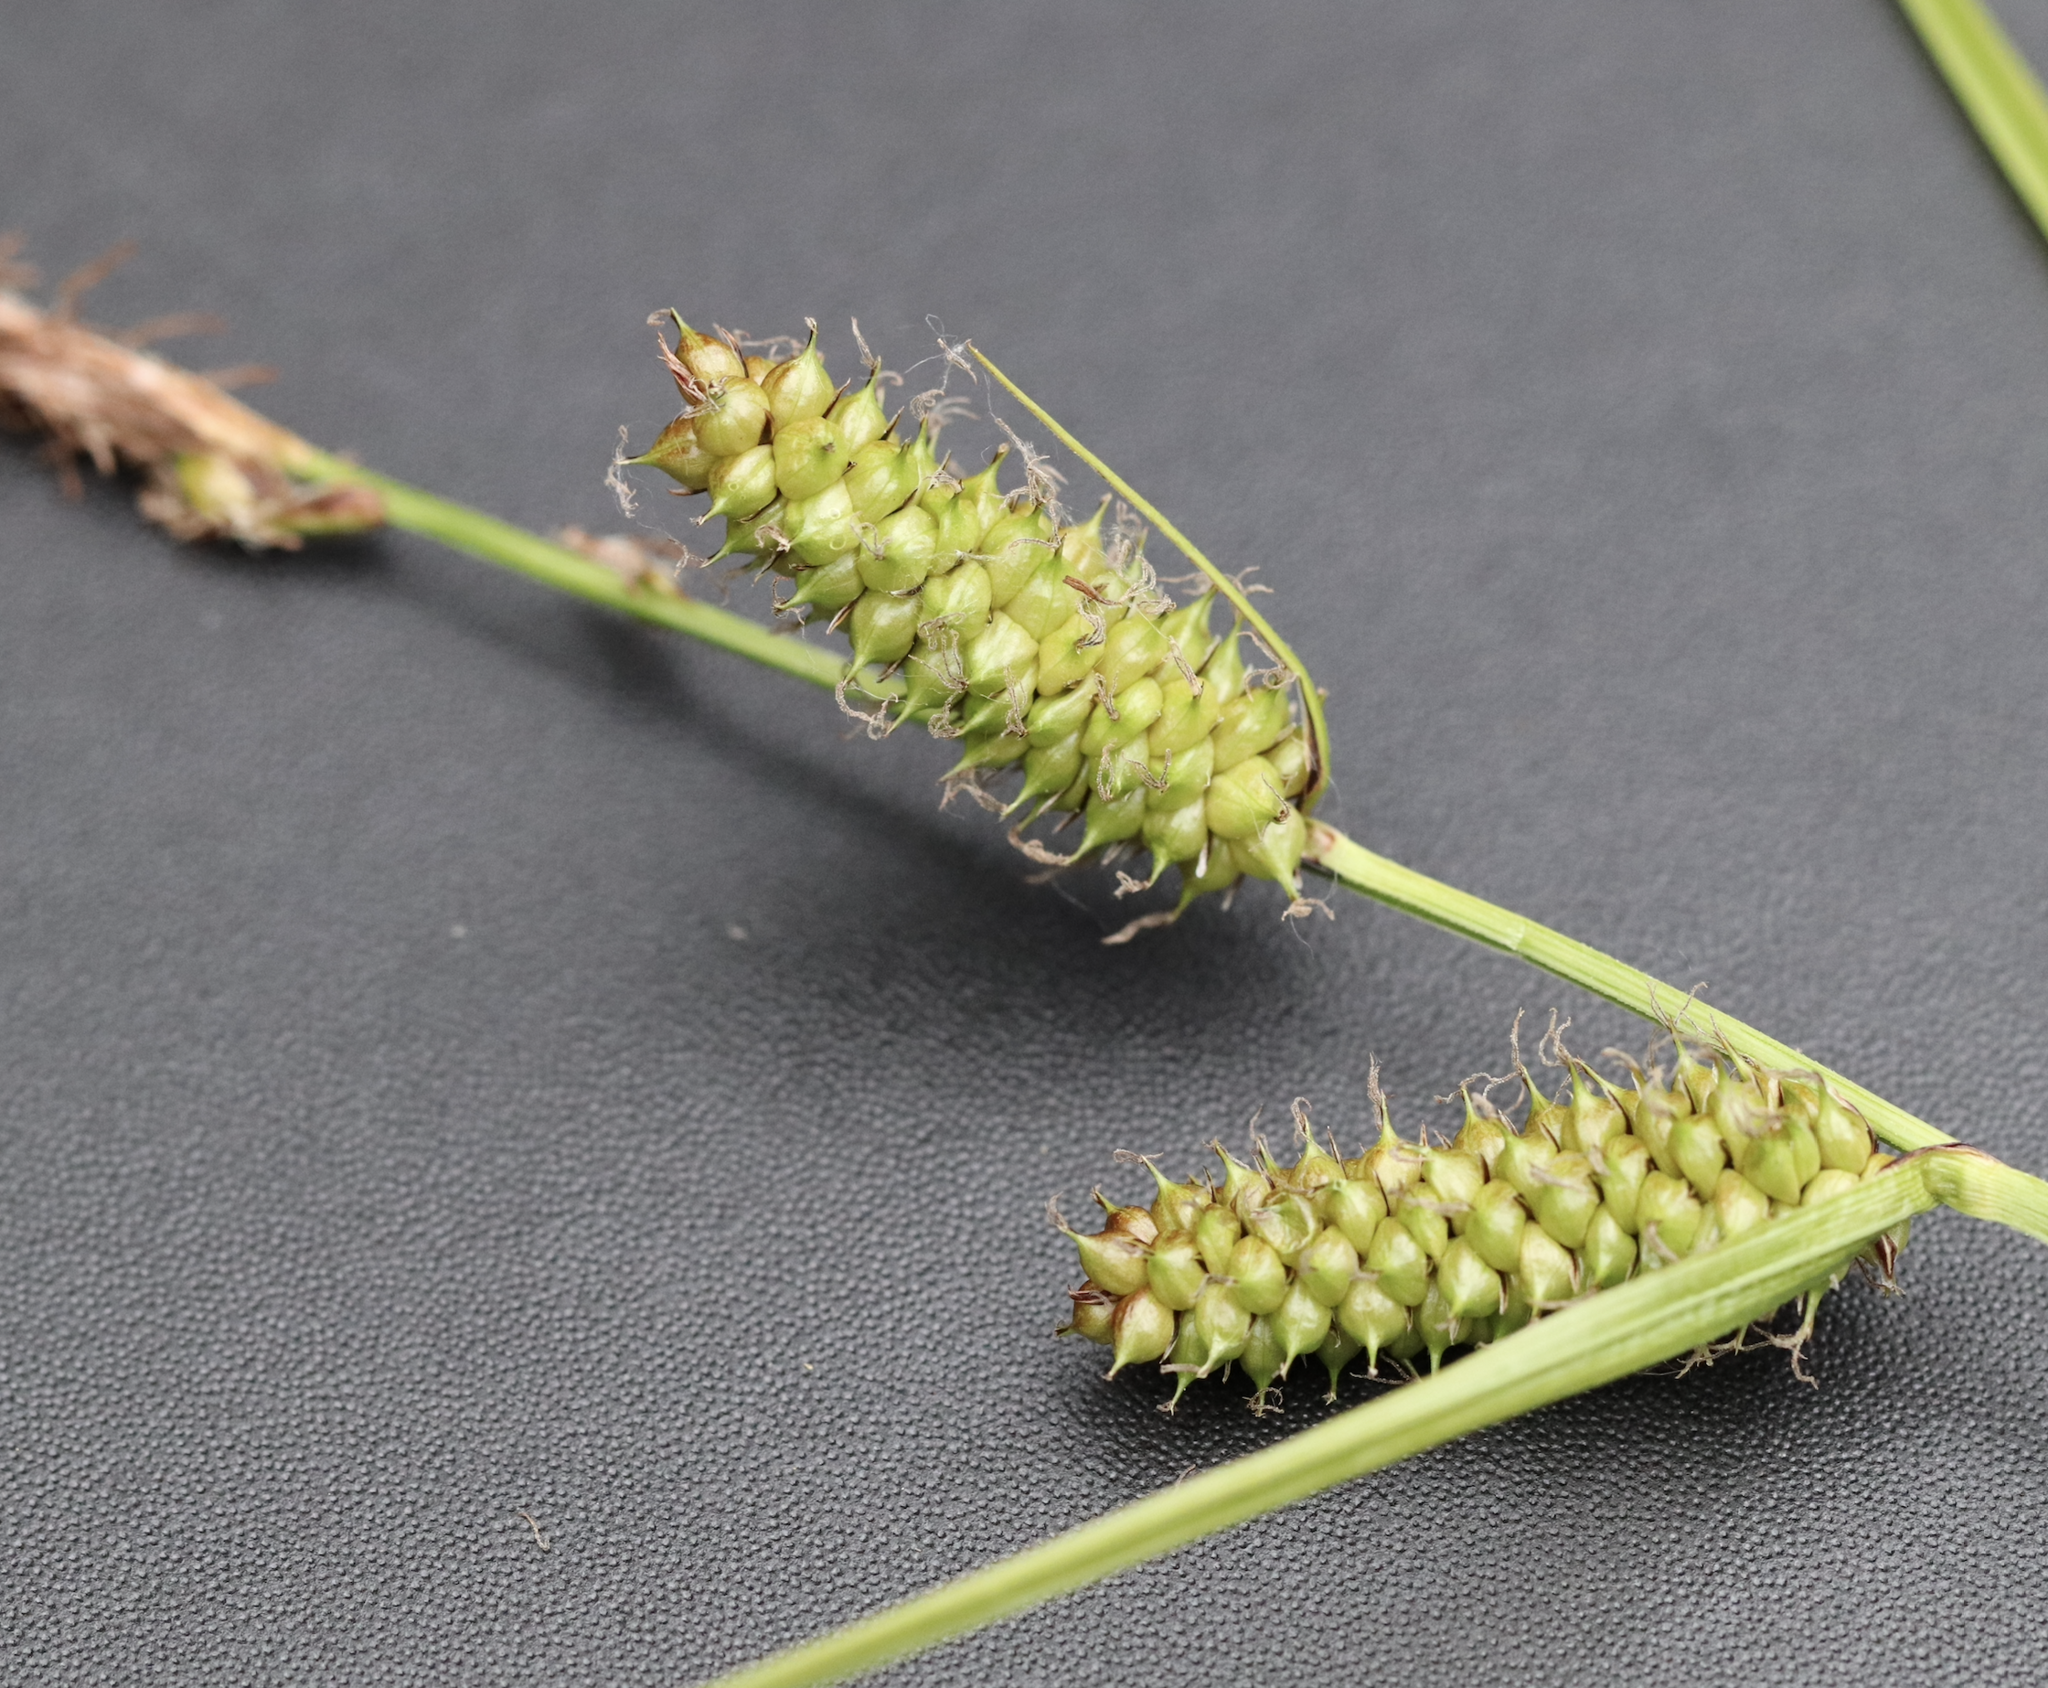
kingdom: Plantae
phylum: Tracheophyta
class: Liliopsida
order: Poales
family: Cyperaceae
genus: Carex
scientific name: Carex utriculata
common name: Beaked sedge
